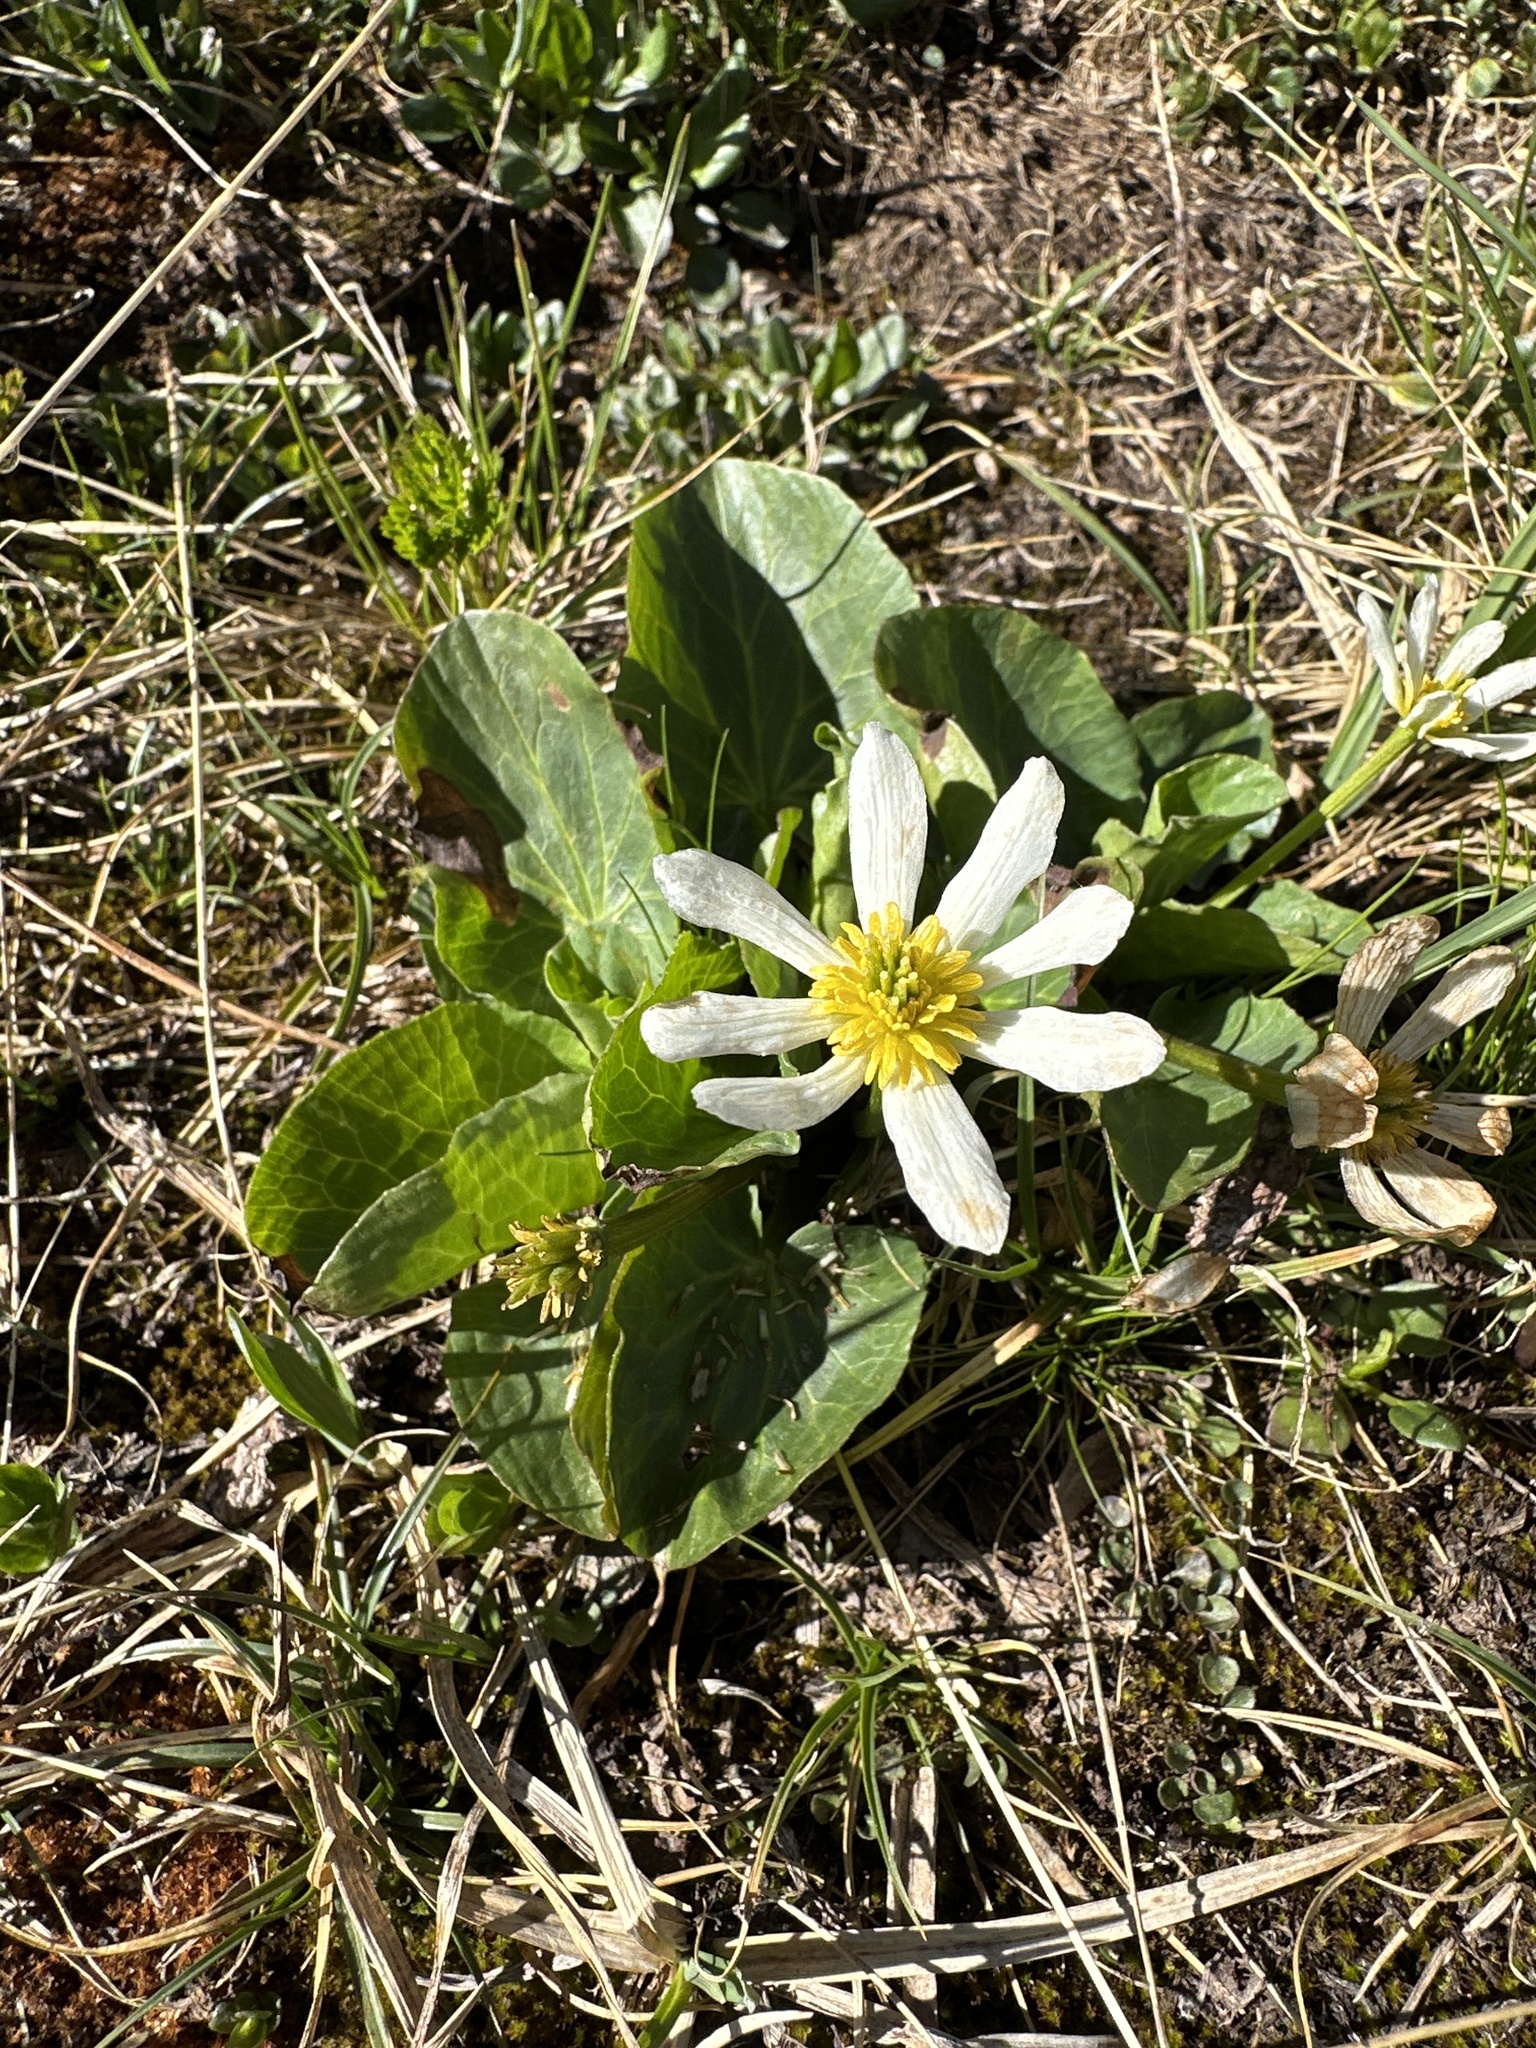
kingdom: Plantae
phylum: Tracheophyta
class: Magnoliopsida
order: Ranunculales
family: Ranunculaceae
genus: Caltha
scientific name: Caltha leptosepala
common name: Elkslip
